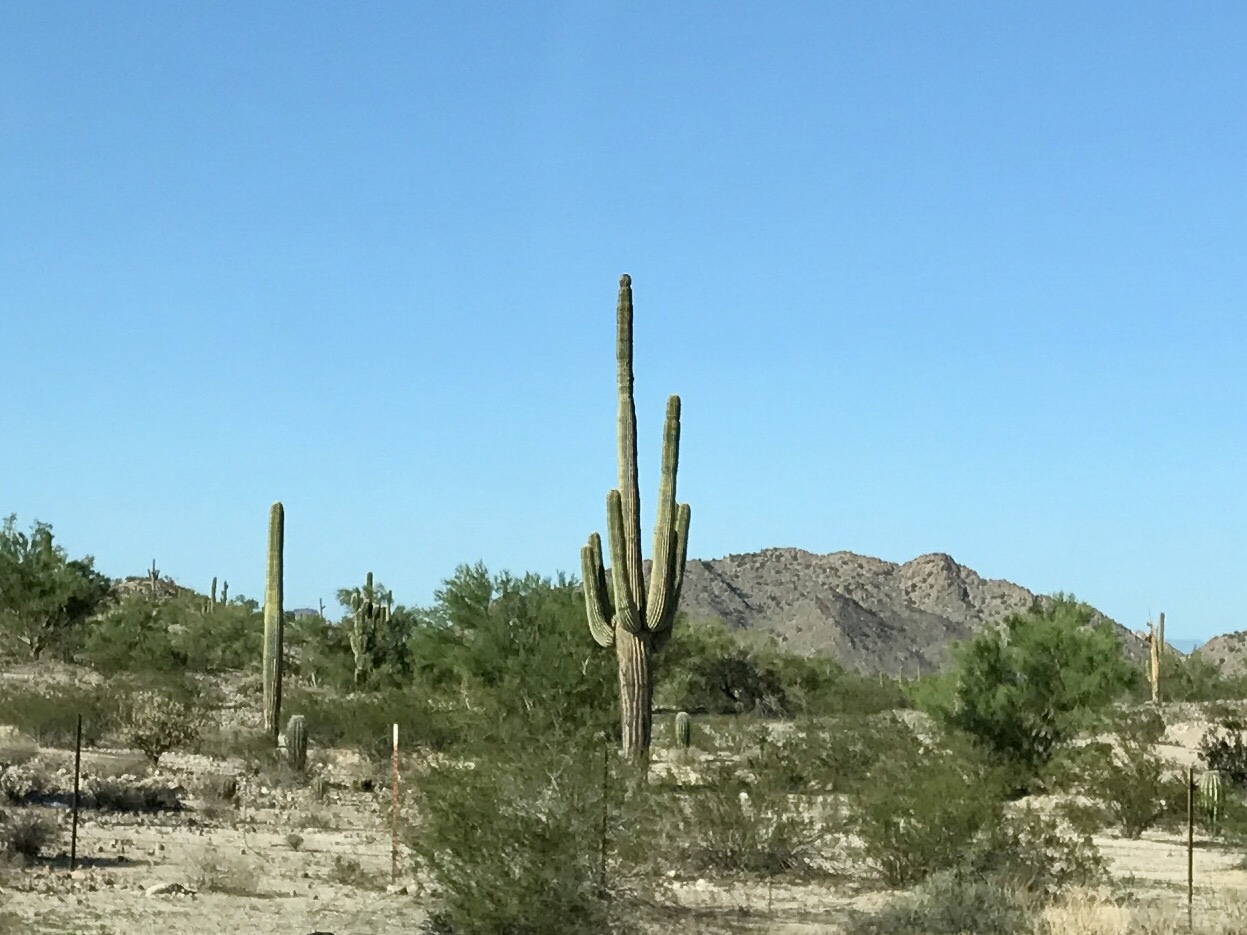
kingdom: Plantae
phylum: Tracheophyta
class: Magnoliopsida
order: Caryophyllales
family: Cactaceae
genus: Carnegiea
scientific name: Carnegiea gigantea
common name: Saguaro
